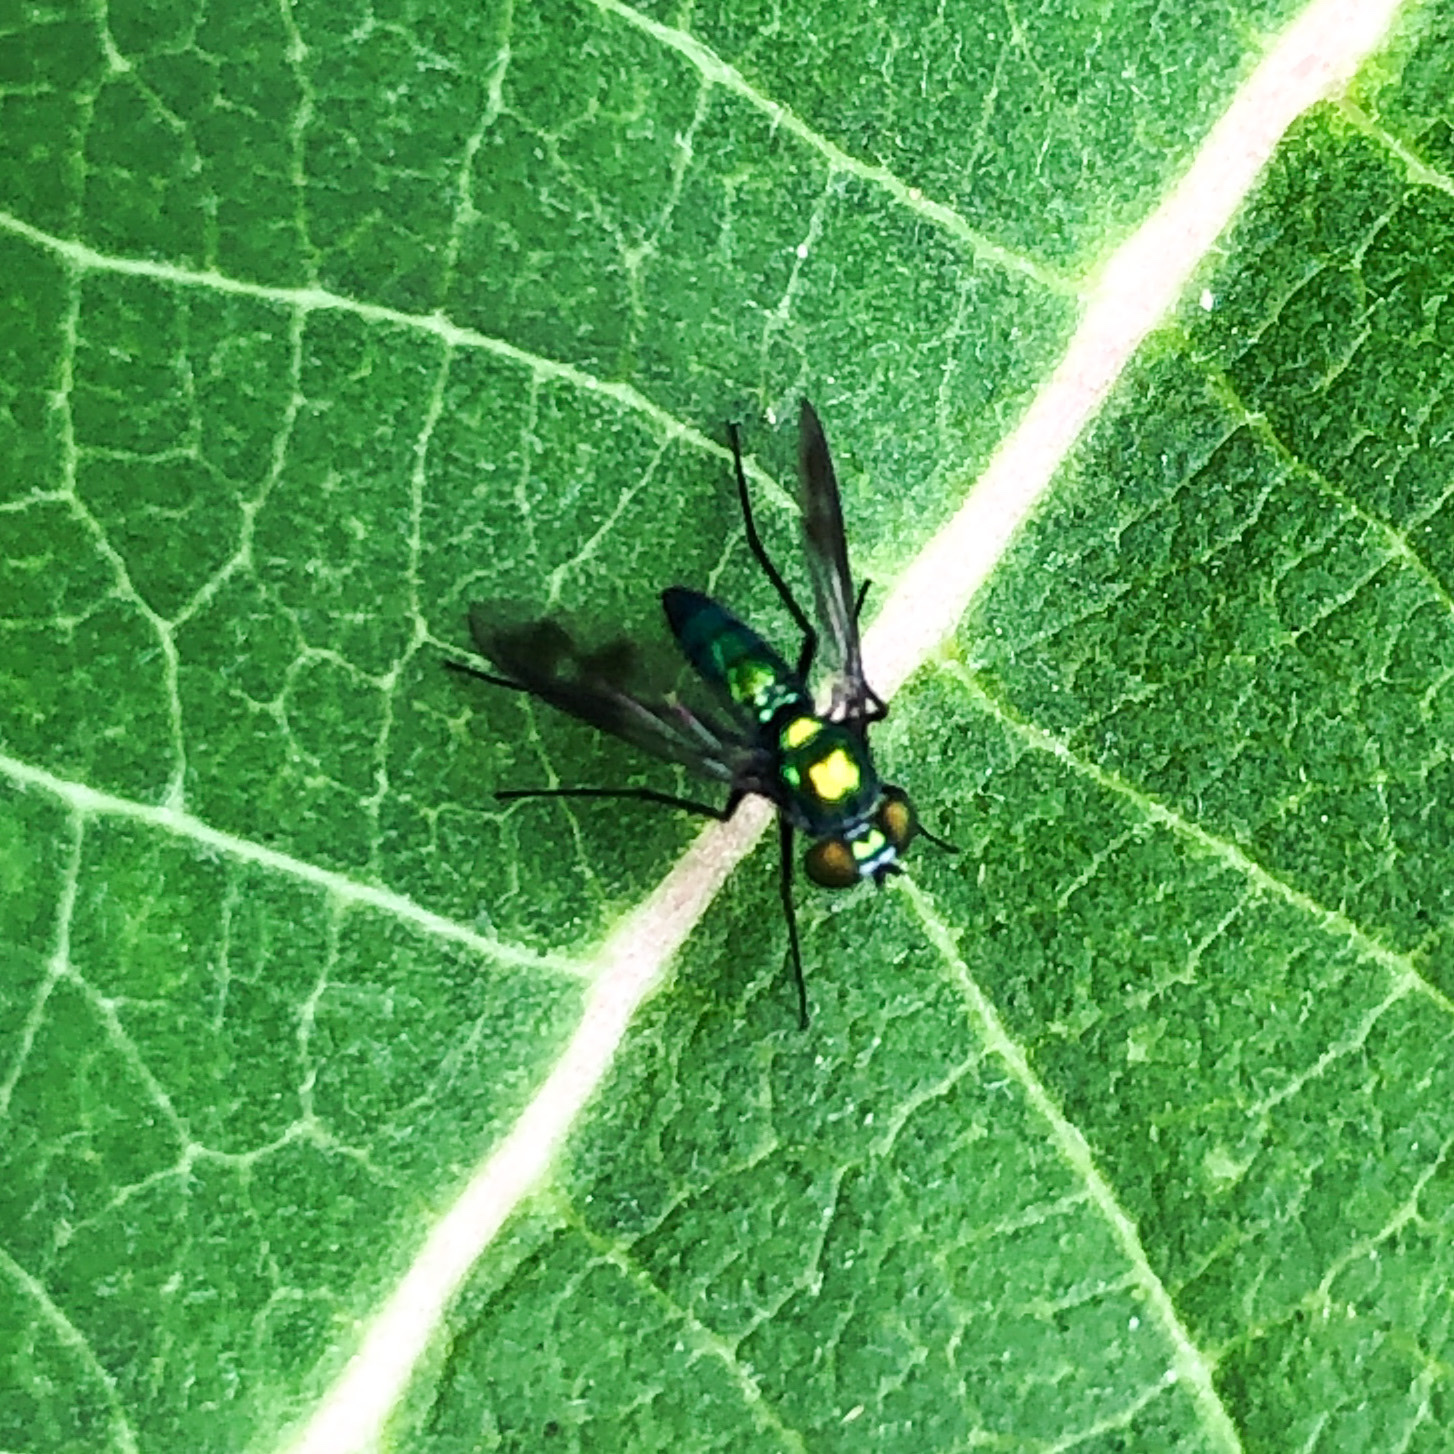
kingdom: Animalia
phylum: Arthropoda
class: Insecta
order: Diptera
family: Dolichopodidae
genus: Condylostylus
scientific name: Condylostylus patibulatus
